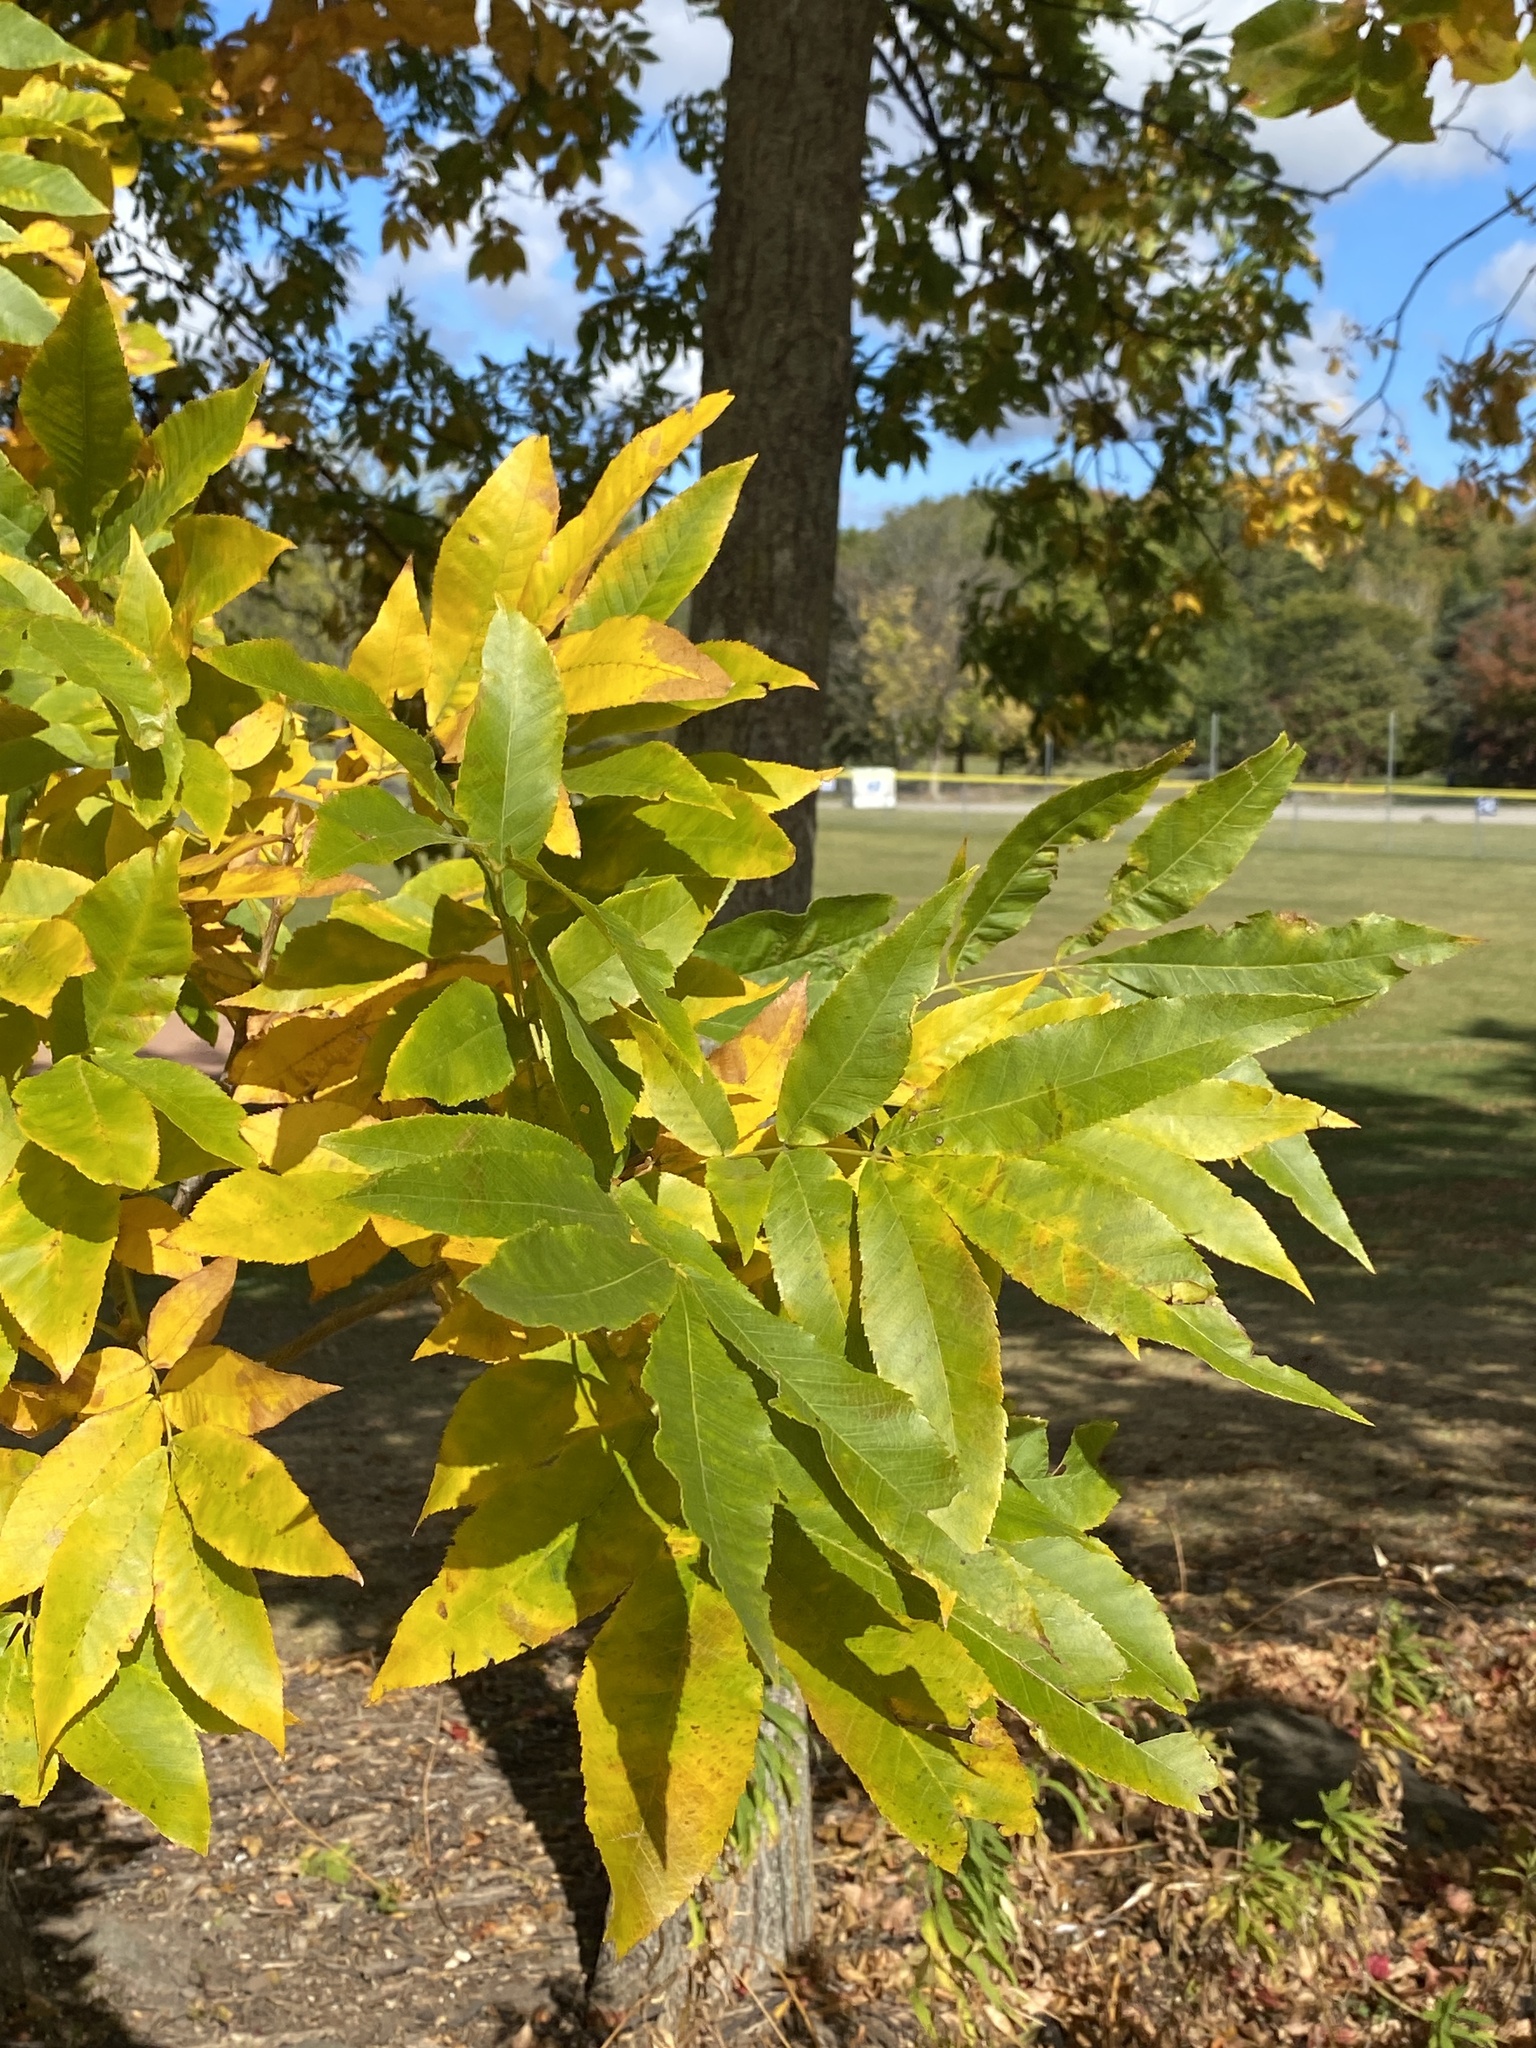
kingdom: Plantae
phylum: Tracheophyta
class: Magnoliopsida
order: Fagales
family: Juglandaceae
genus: Carya
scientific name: Carya cordiformis
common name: Bitternut hickory
